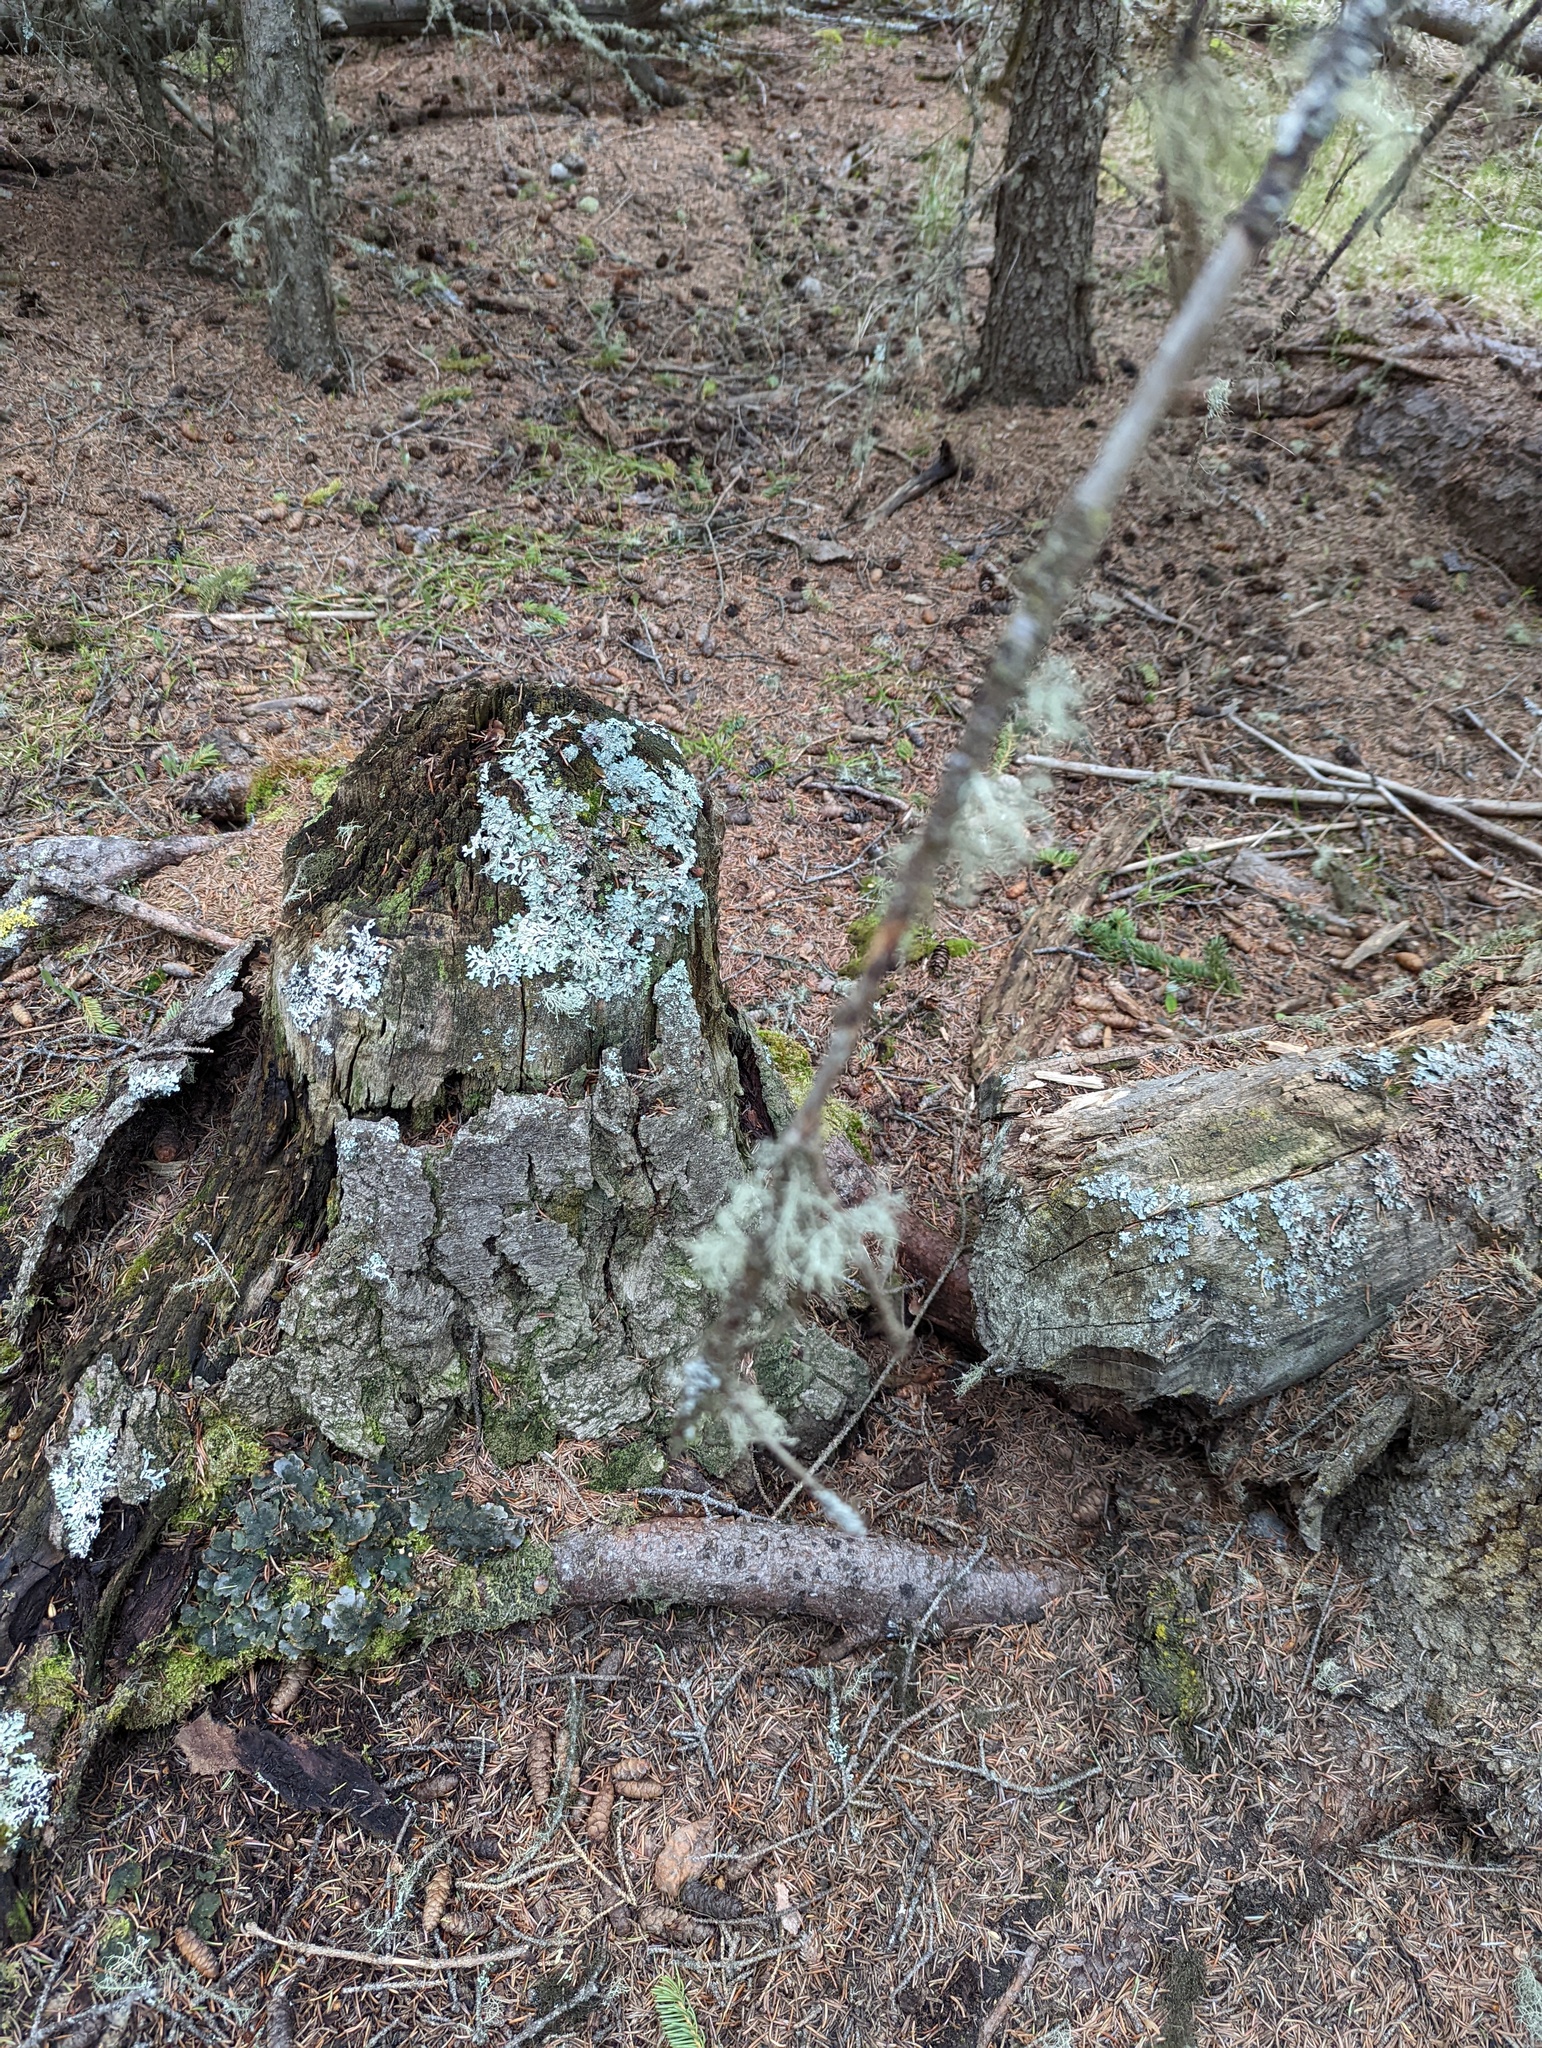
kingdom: Animalia
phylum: Chordata
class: Mammalia
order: Rodentia
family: Castoridae
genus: Castor
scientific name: Castor canadensis
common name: American beaver
